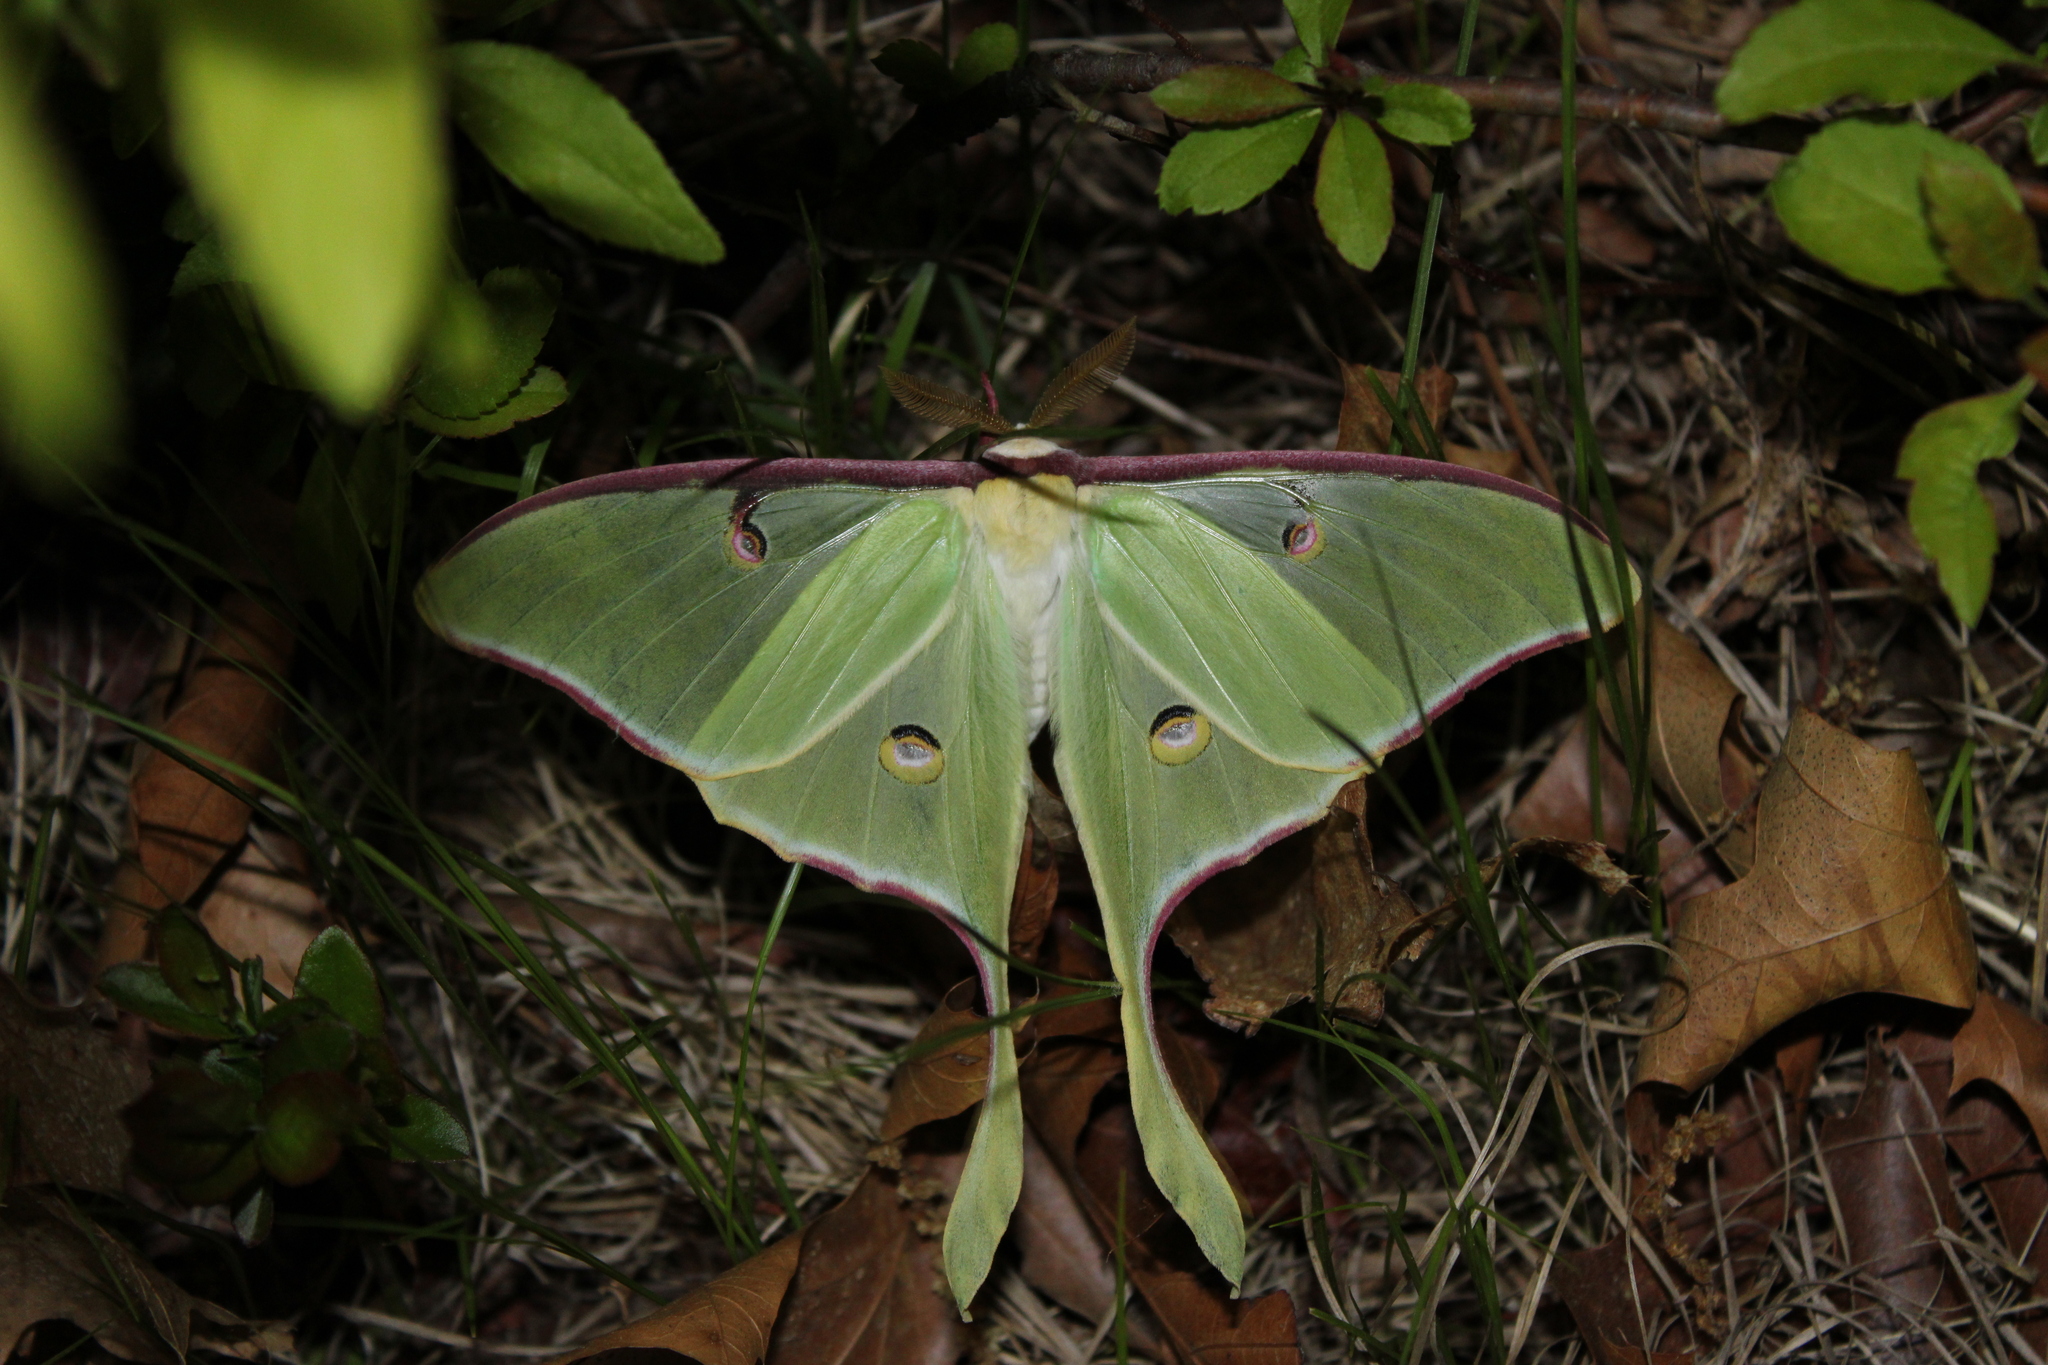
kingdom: Animalia
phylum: Arthropoda
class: Insecta
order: Lepidoptera
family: Saturniidae
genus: Actias
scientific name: Actias luna
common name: Luna moth
